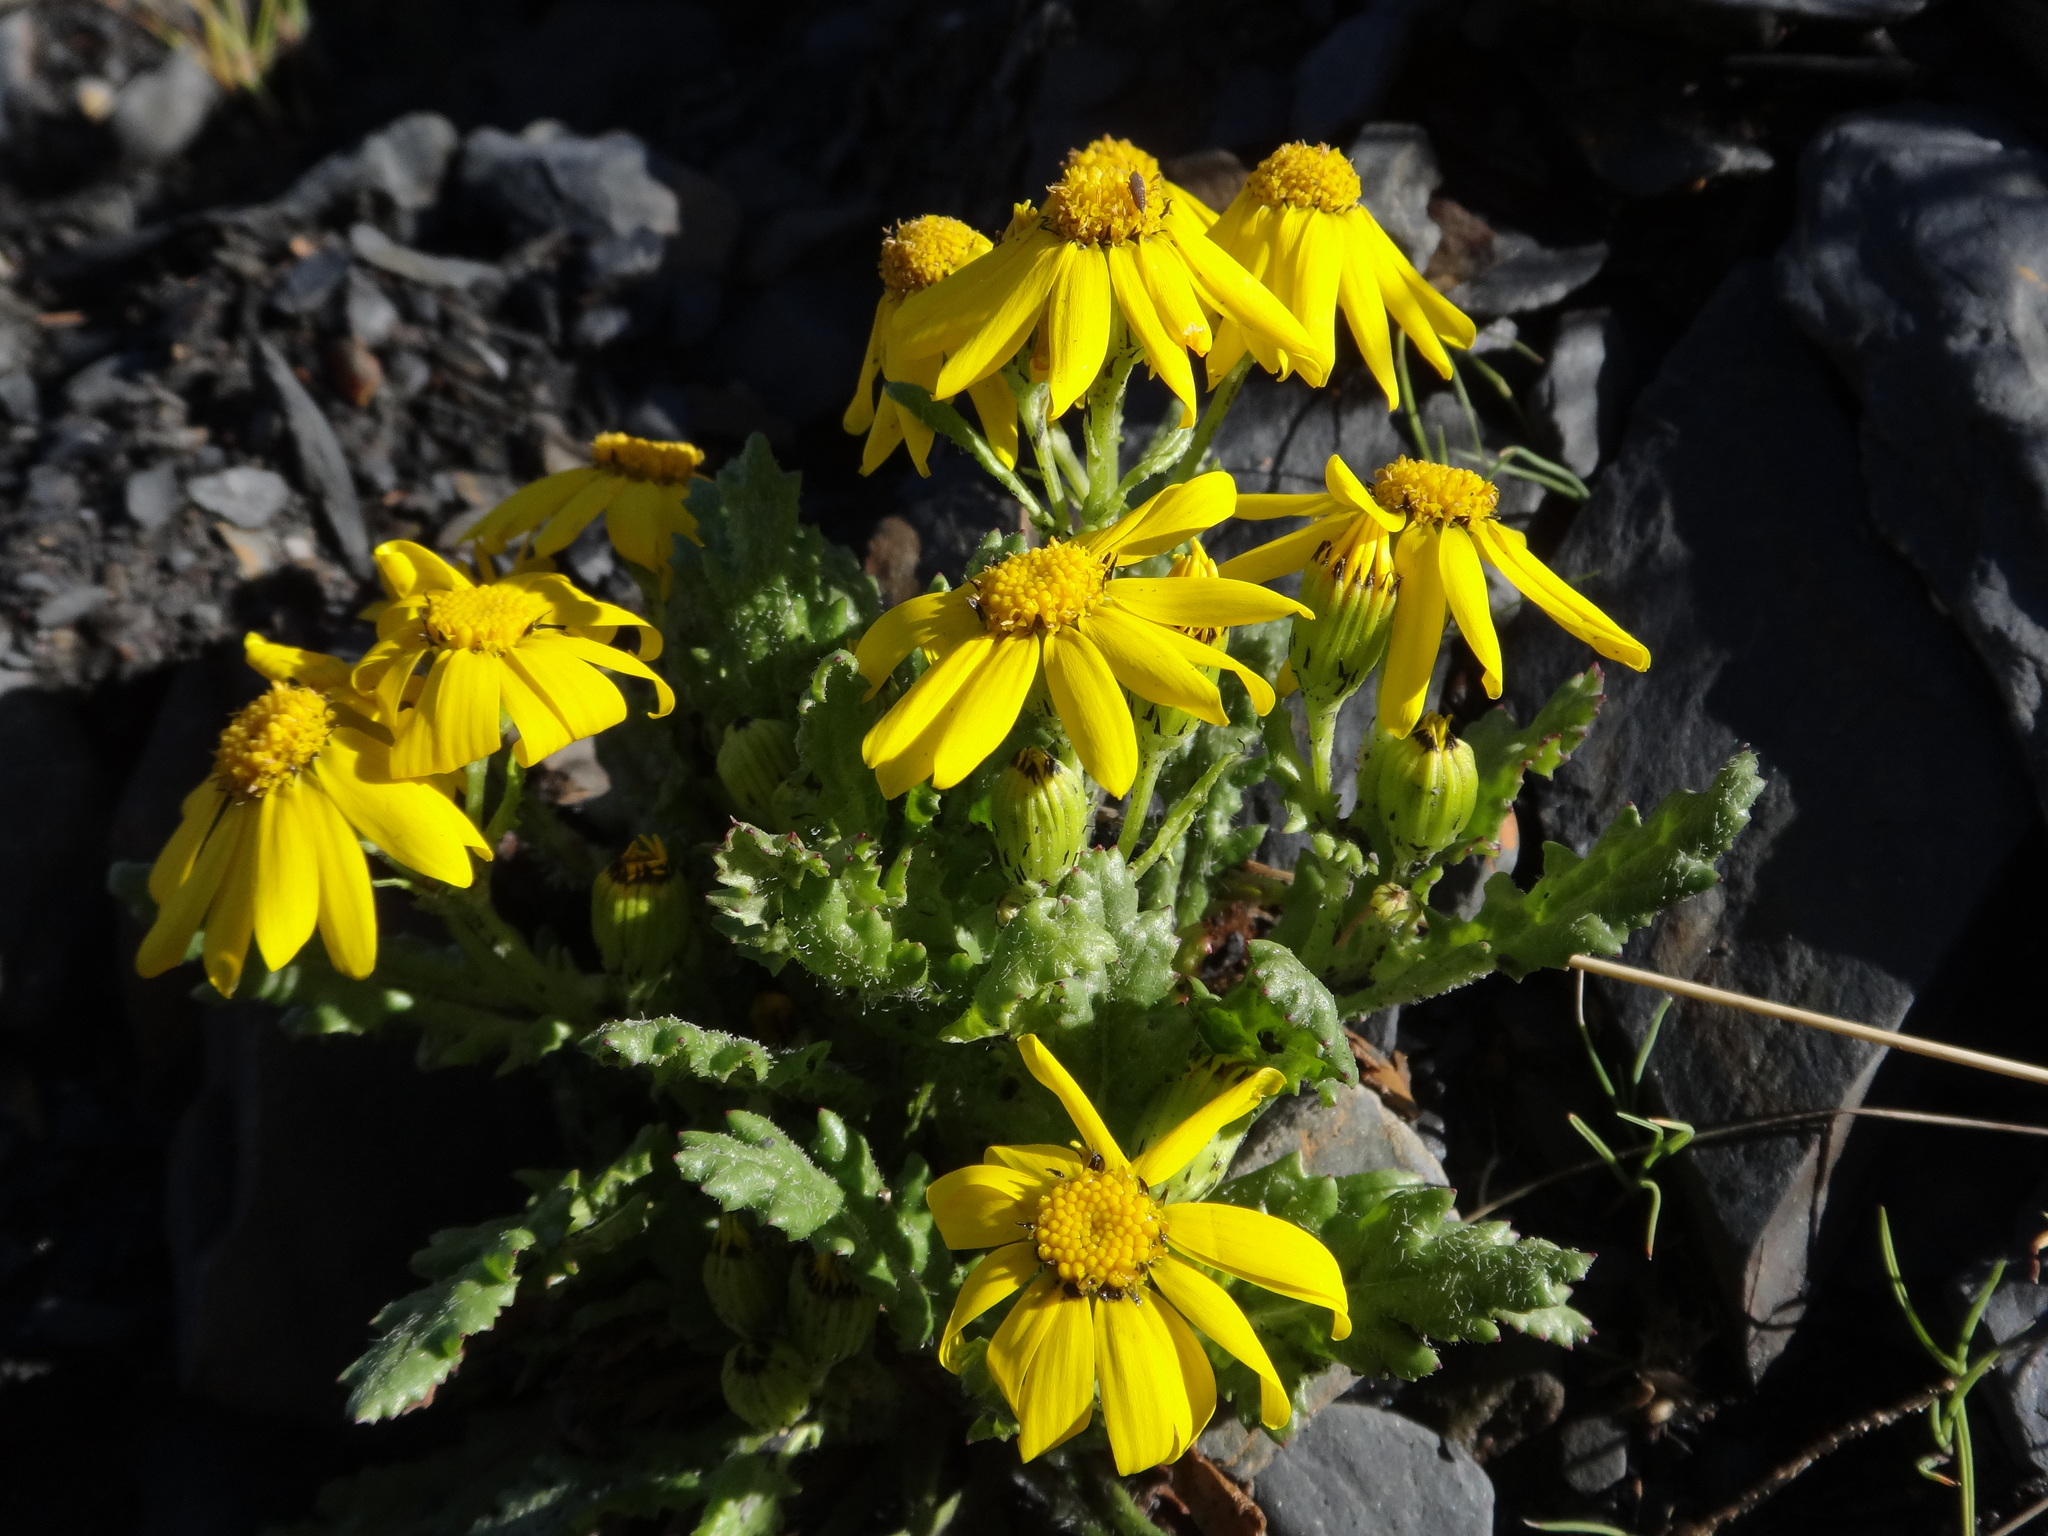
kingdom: Plantae
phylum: Tracheophyta
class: Magnoliopsida
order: Asterales
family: Asteraceae
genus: Senecio
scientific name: Senecio leucanthemifolius
